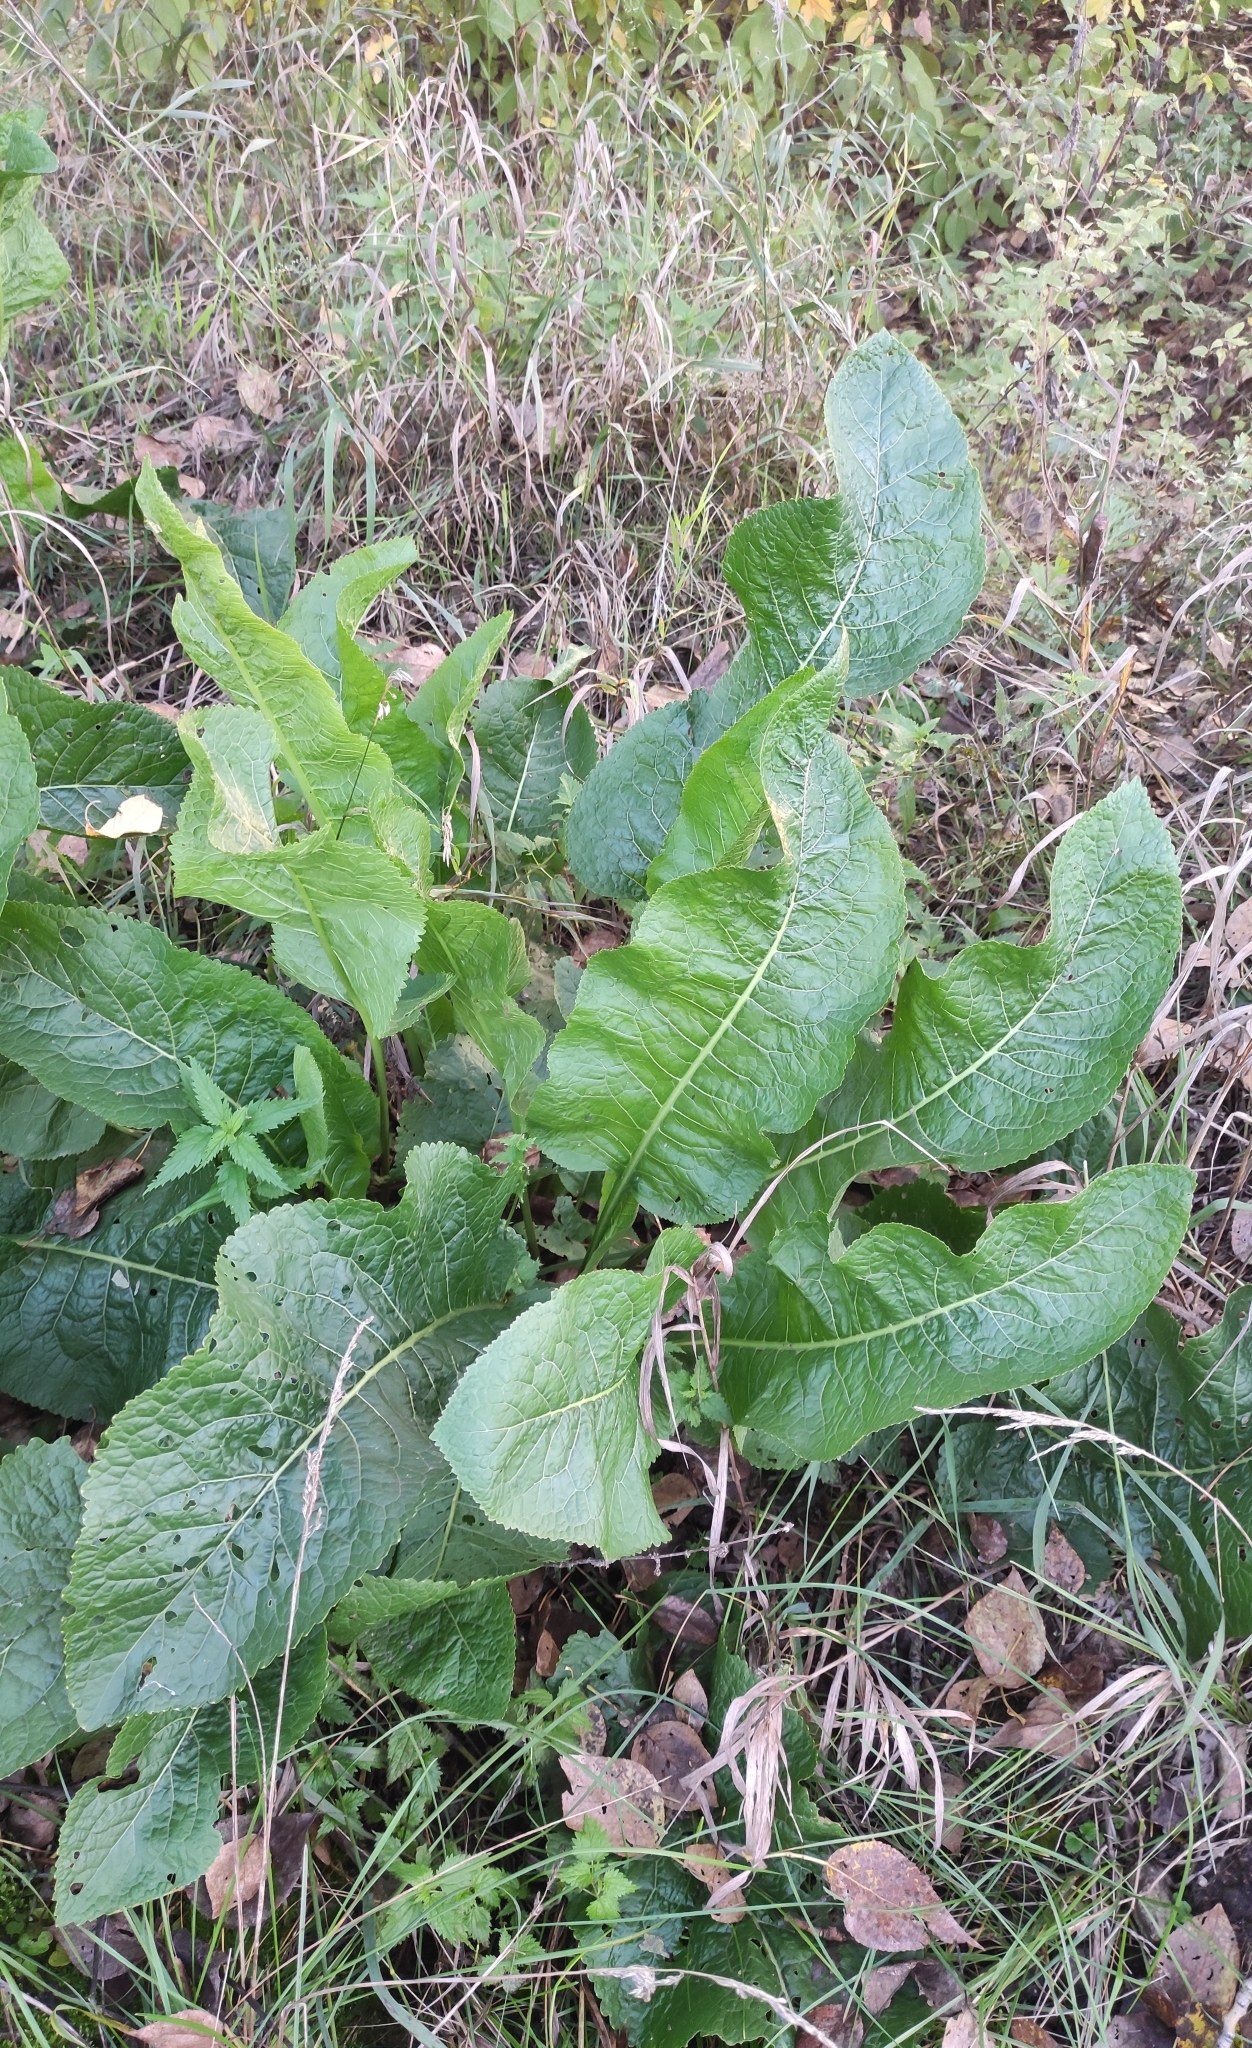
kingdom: Plantae
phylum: Tracheophyta
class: Magnoliopsida
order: Brassicales
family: Brassicaceae
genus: Armoracia
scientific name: Armoracia rusticana
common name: Horseradish
